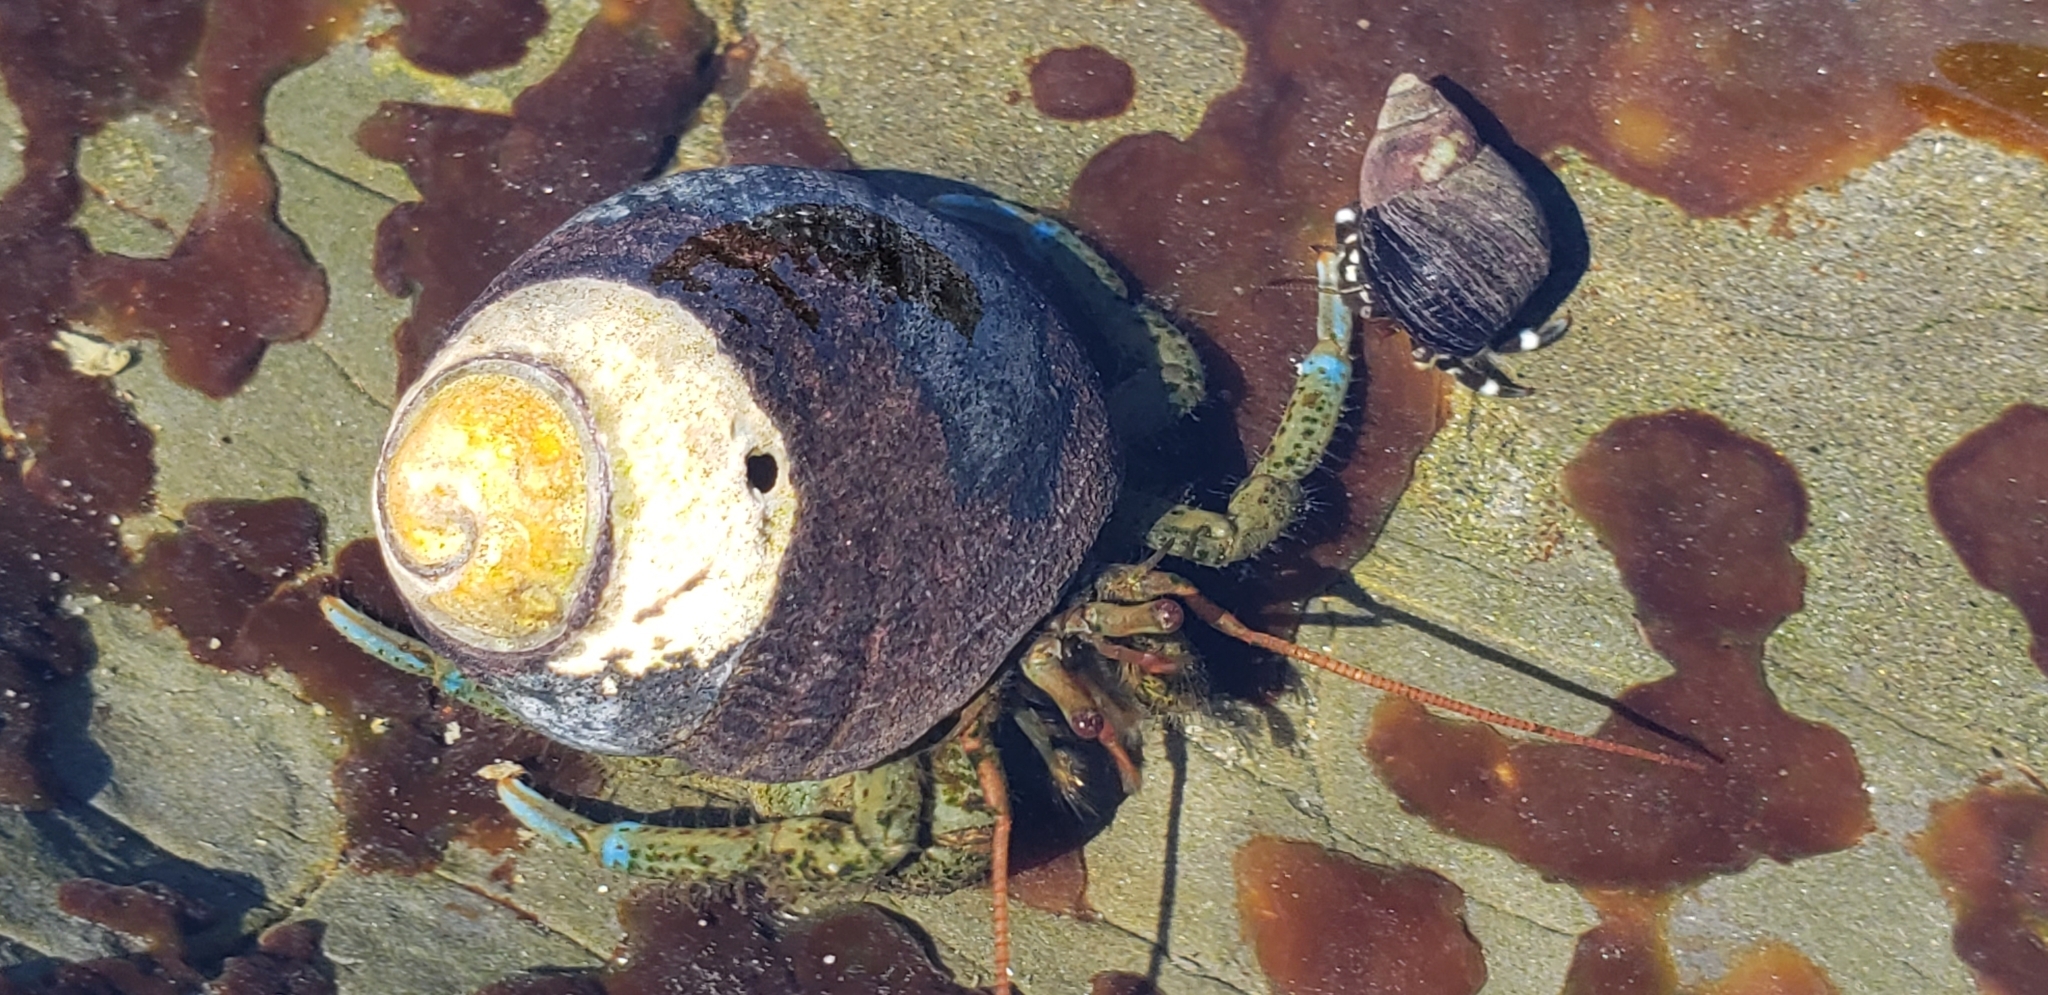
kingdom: Animalia
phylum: Arthropoda
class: Malacostraca
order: Decapoda
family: Paguridae
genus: Pagurus
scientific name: Pagurus samuelis
